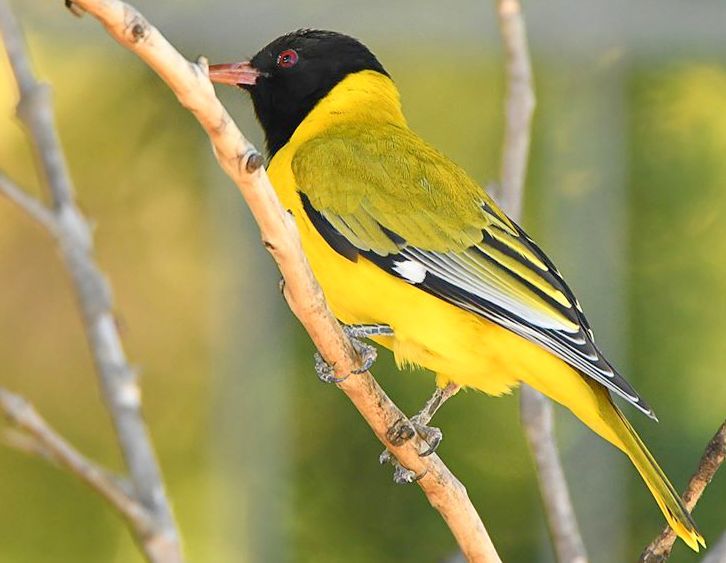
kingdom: Animalia
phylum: Chordata
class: Aves
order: Passeriformes
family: Oriolidae
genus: Oriolus
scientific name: Oriolus larvatus
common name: Black-headed oriole
